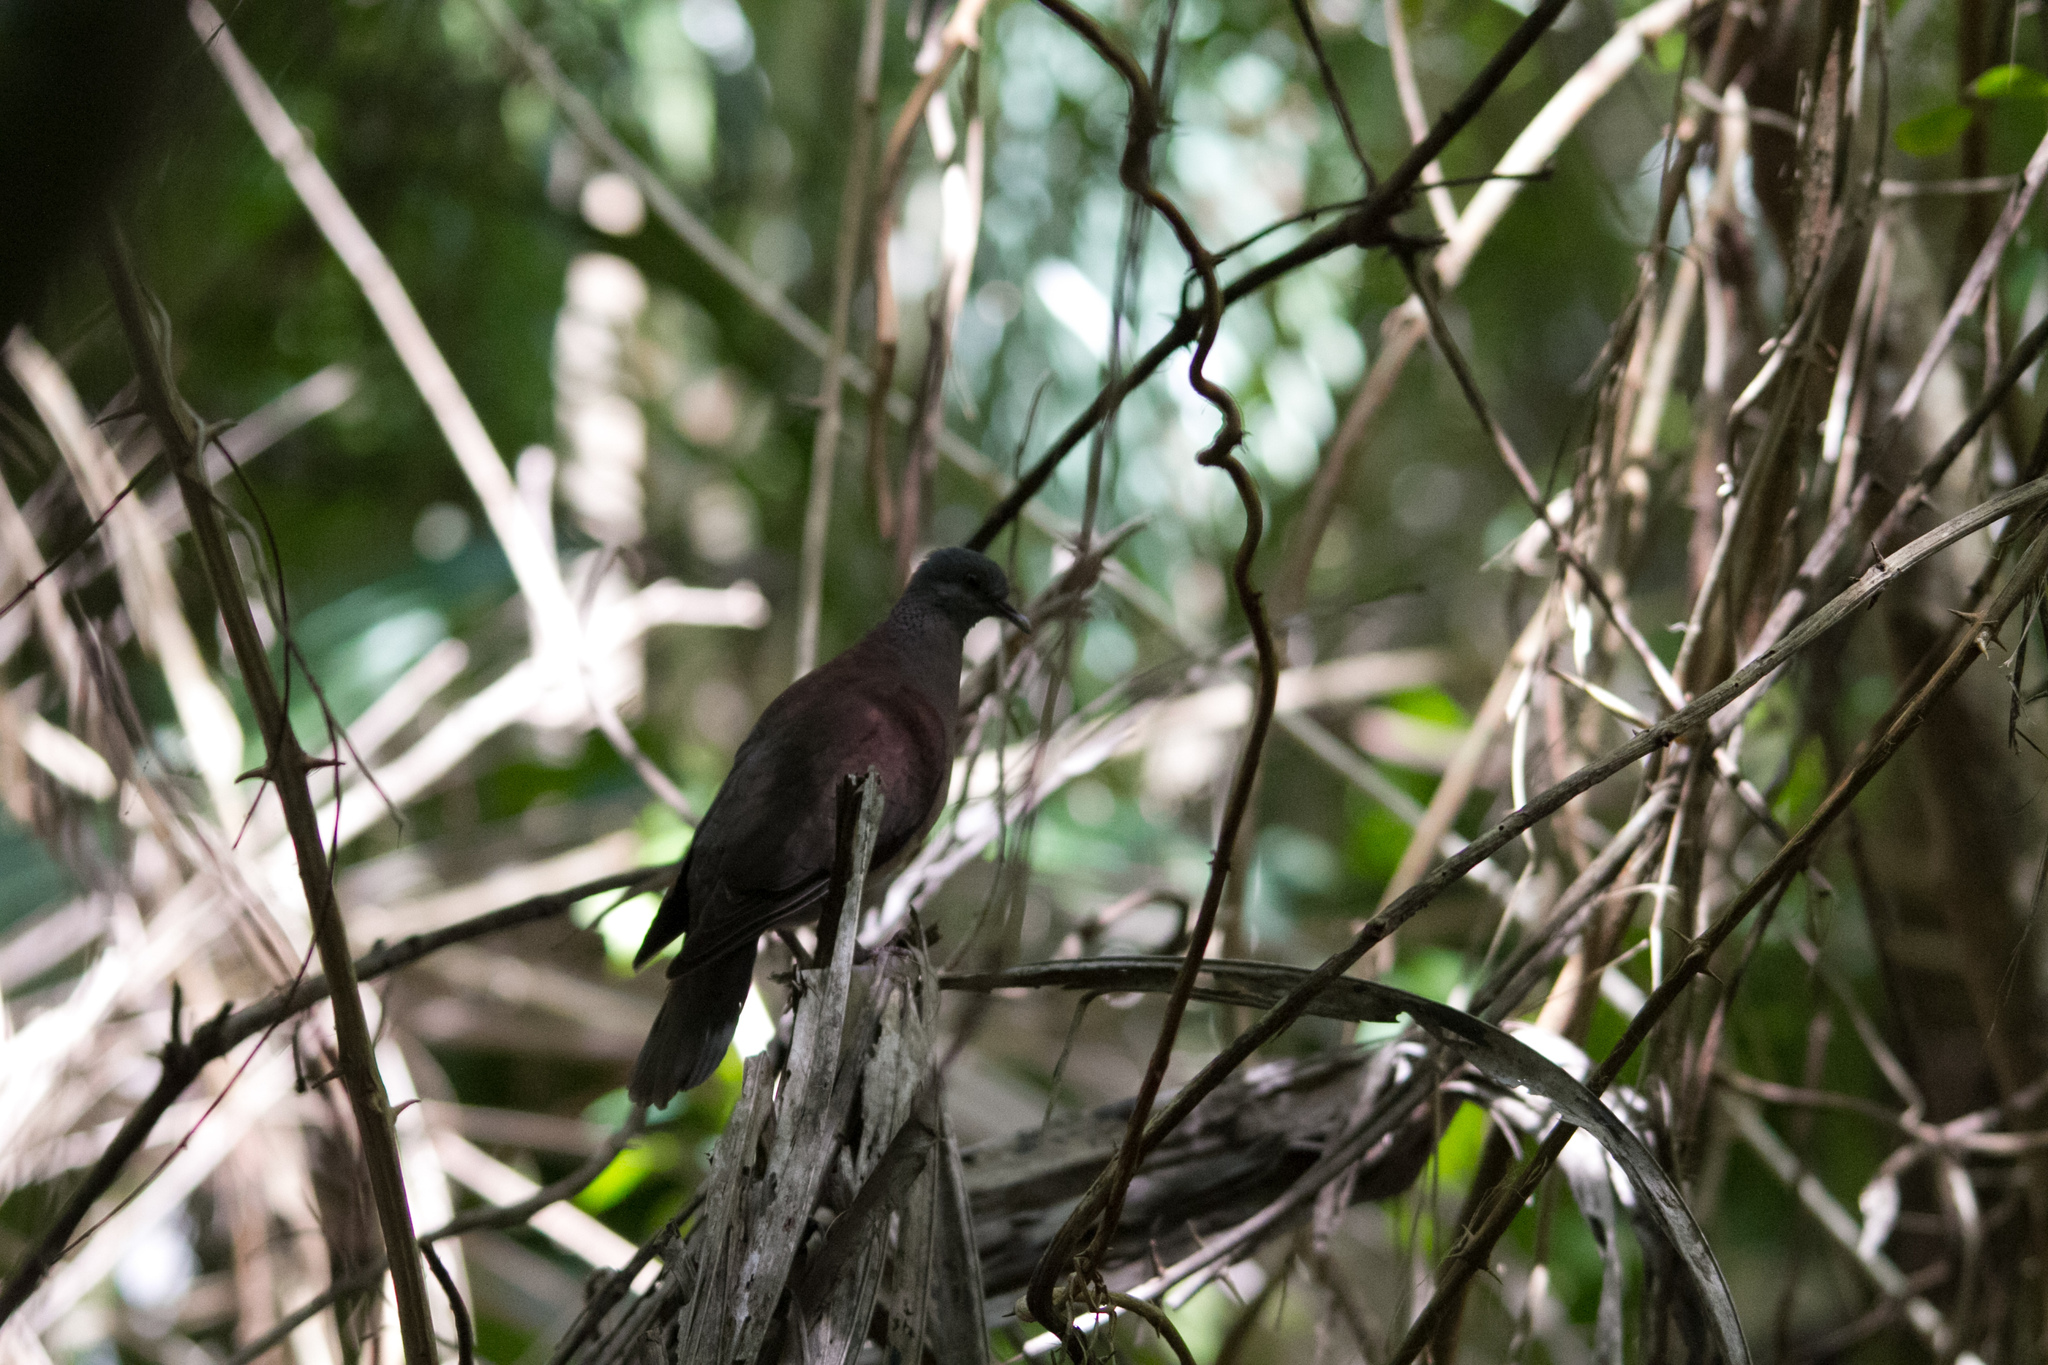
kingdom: Animalia
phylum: Chordata
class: Aves
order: Columbiformes
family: Columbidae
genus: Nesoenas
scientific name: Nesoenas picturatus
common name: Malagasy turtle dove
